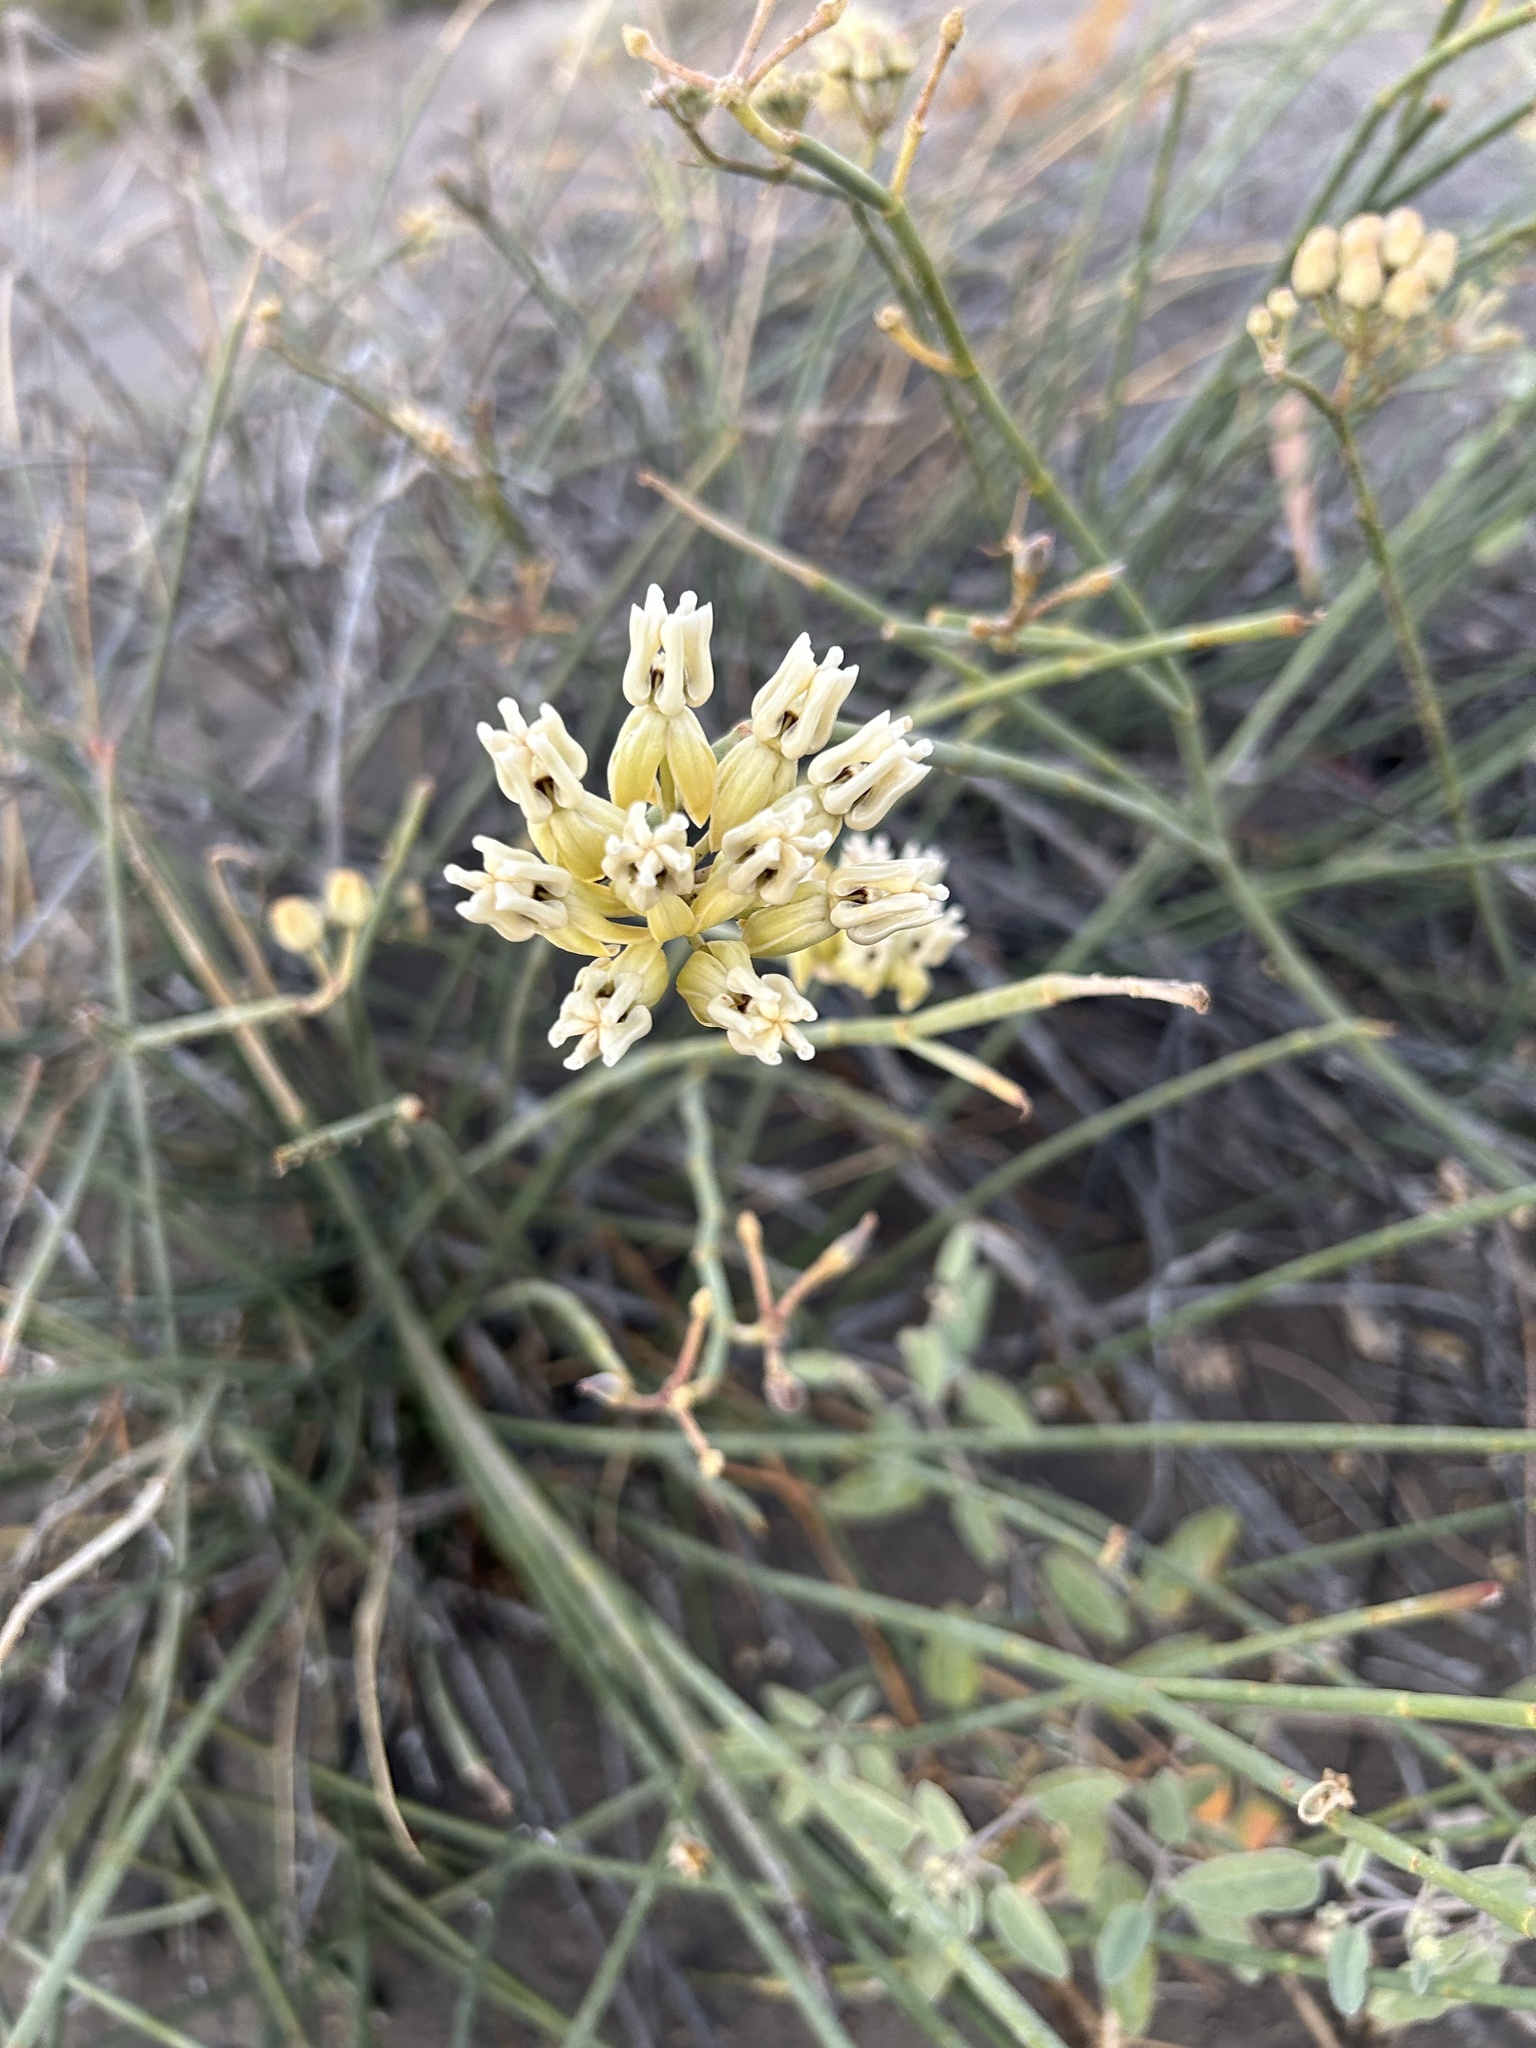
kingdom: Plantae
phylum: Tracheophyta
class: Magnoliopsida
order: Gentianales
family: Apocynaceae
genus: Asclepias
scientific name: Asclepias subulata
